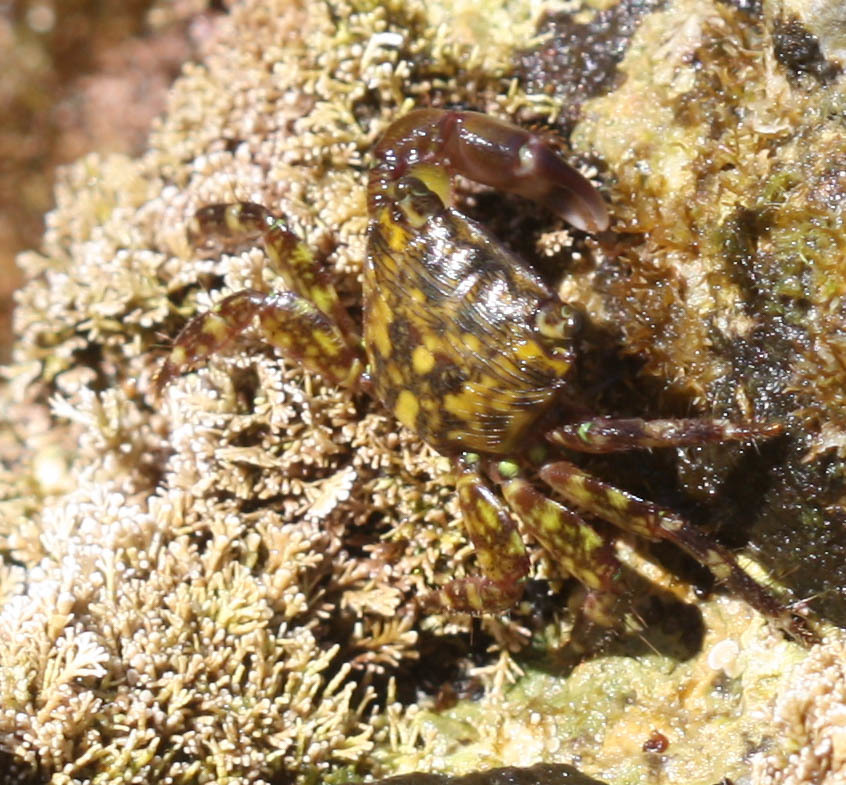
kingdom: Animalia
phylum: Arthropoda
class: Malacostraca
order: Decapoda
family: Grapsidae
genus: Pachygrapsus
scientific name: Pachygrapsus transversus
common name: Mottled shore crab
